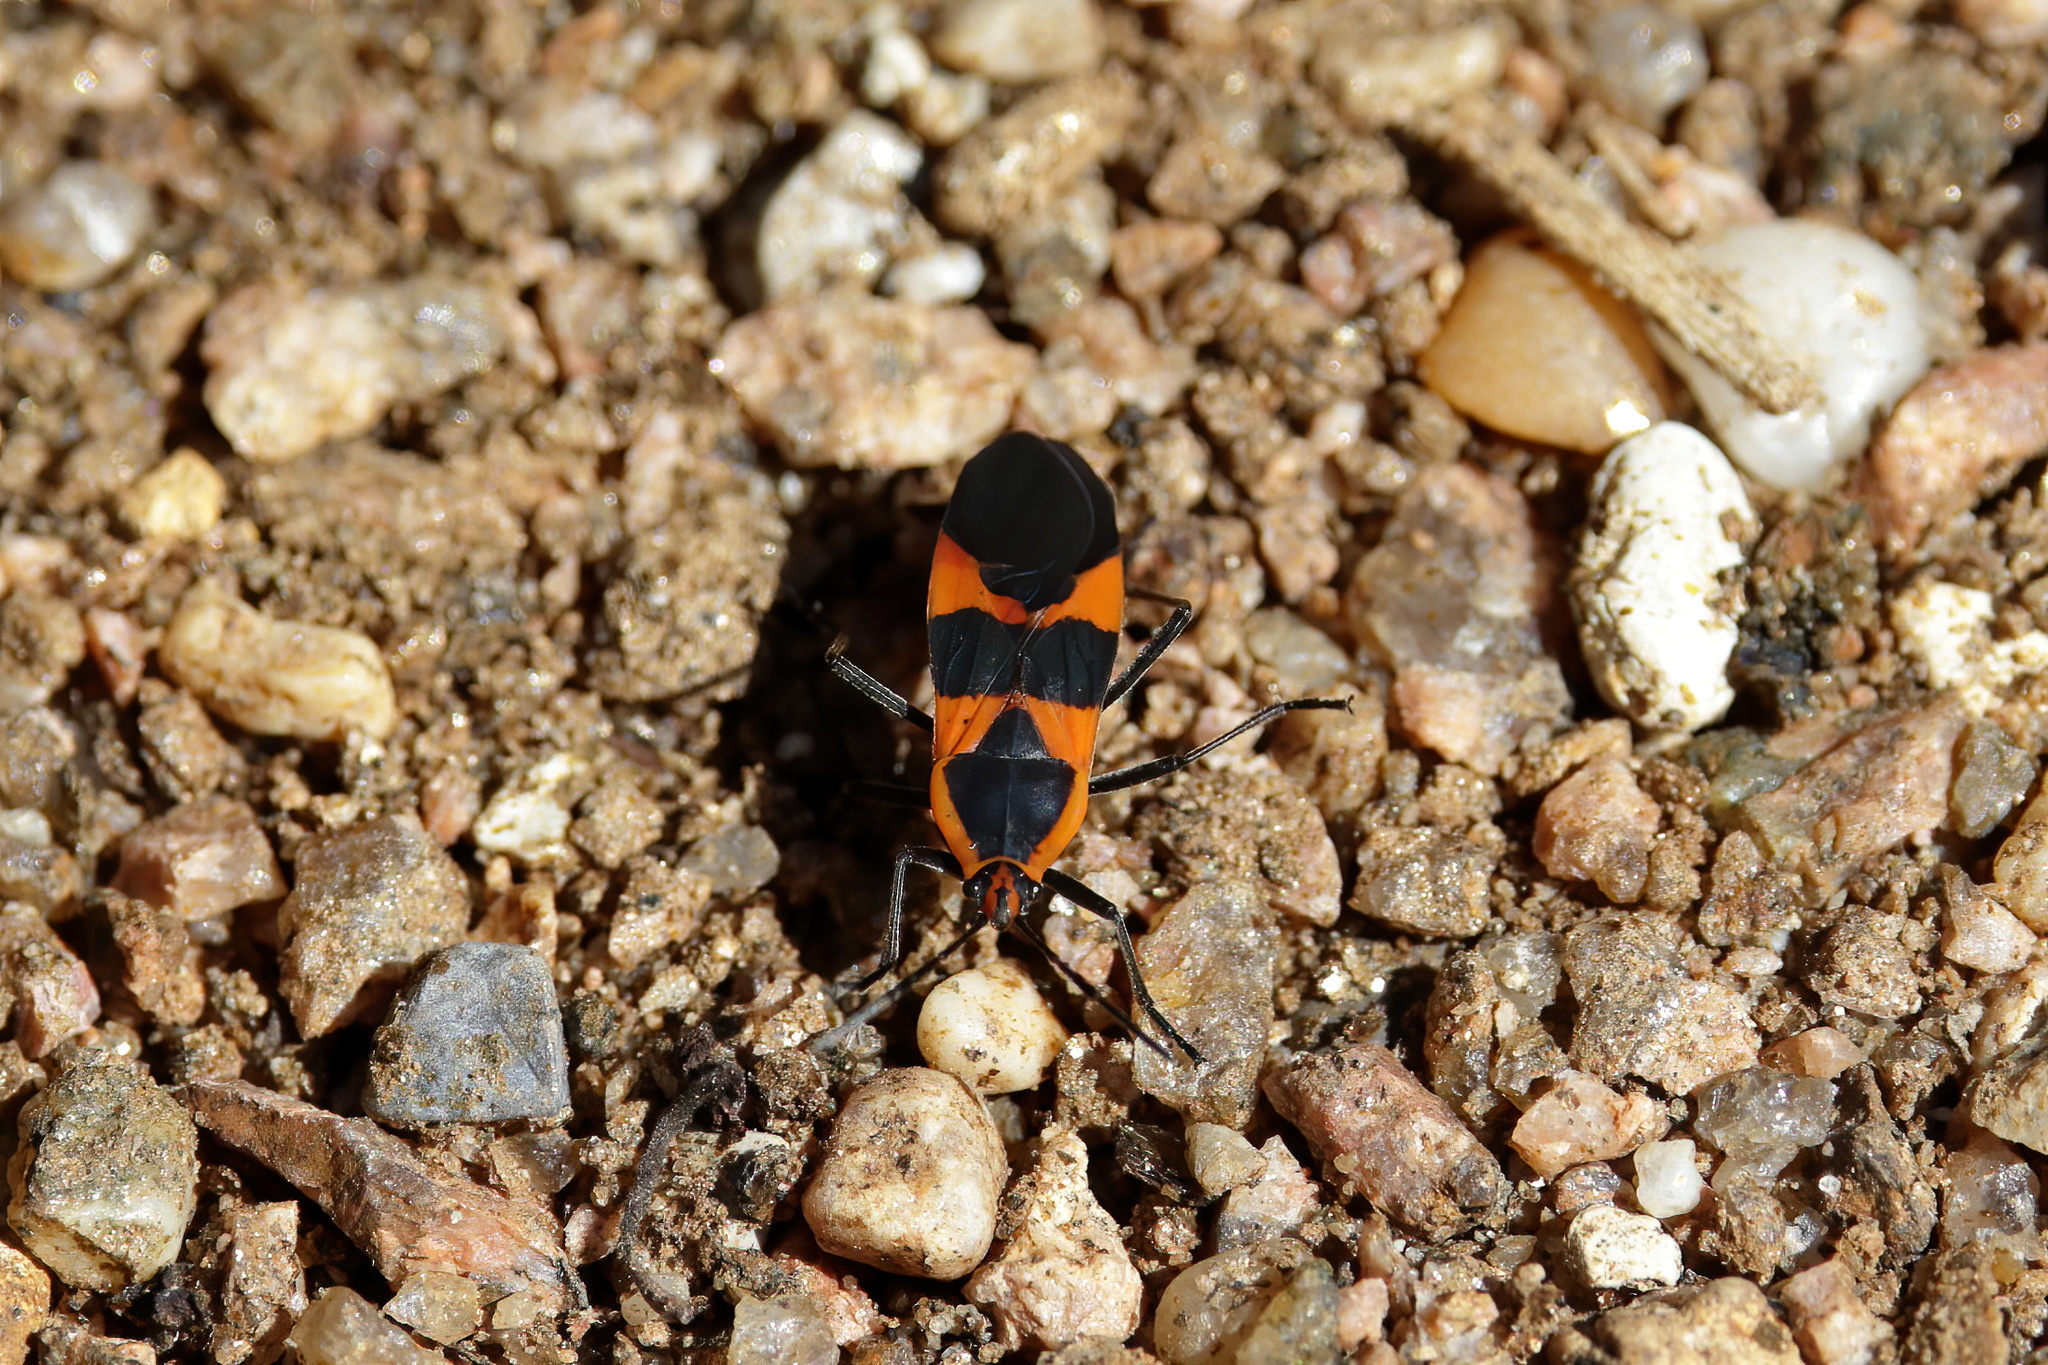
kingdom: Animalia
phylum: Arthropoda
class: Insecta
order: Hemiptera
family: Lygaeidae
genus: Oncopeltus
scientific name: Oncopeltus fasciatus
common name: Large milkweed bug
